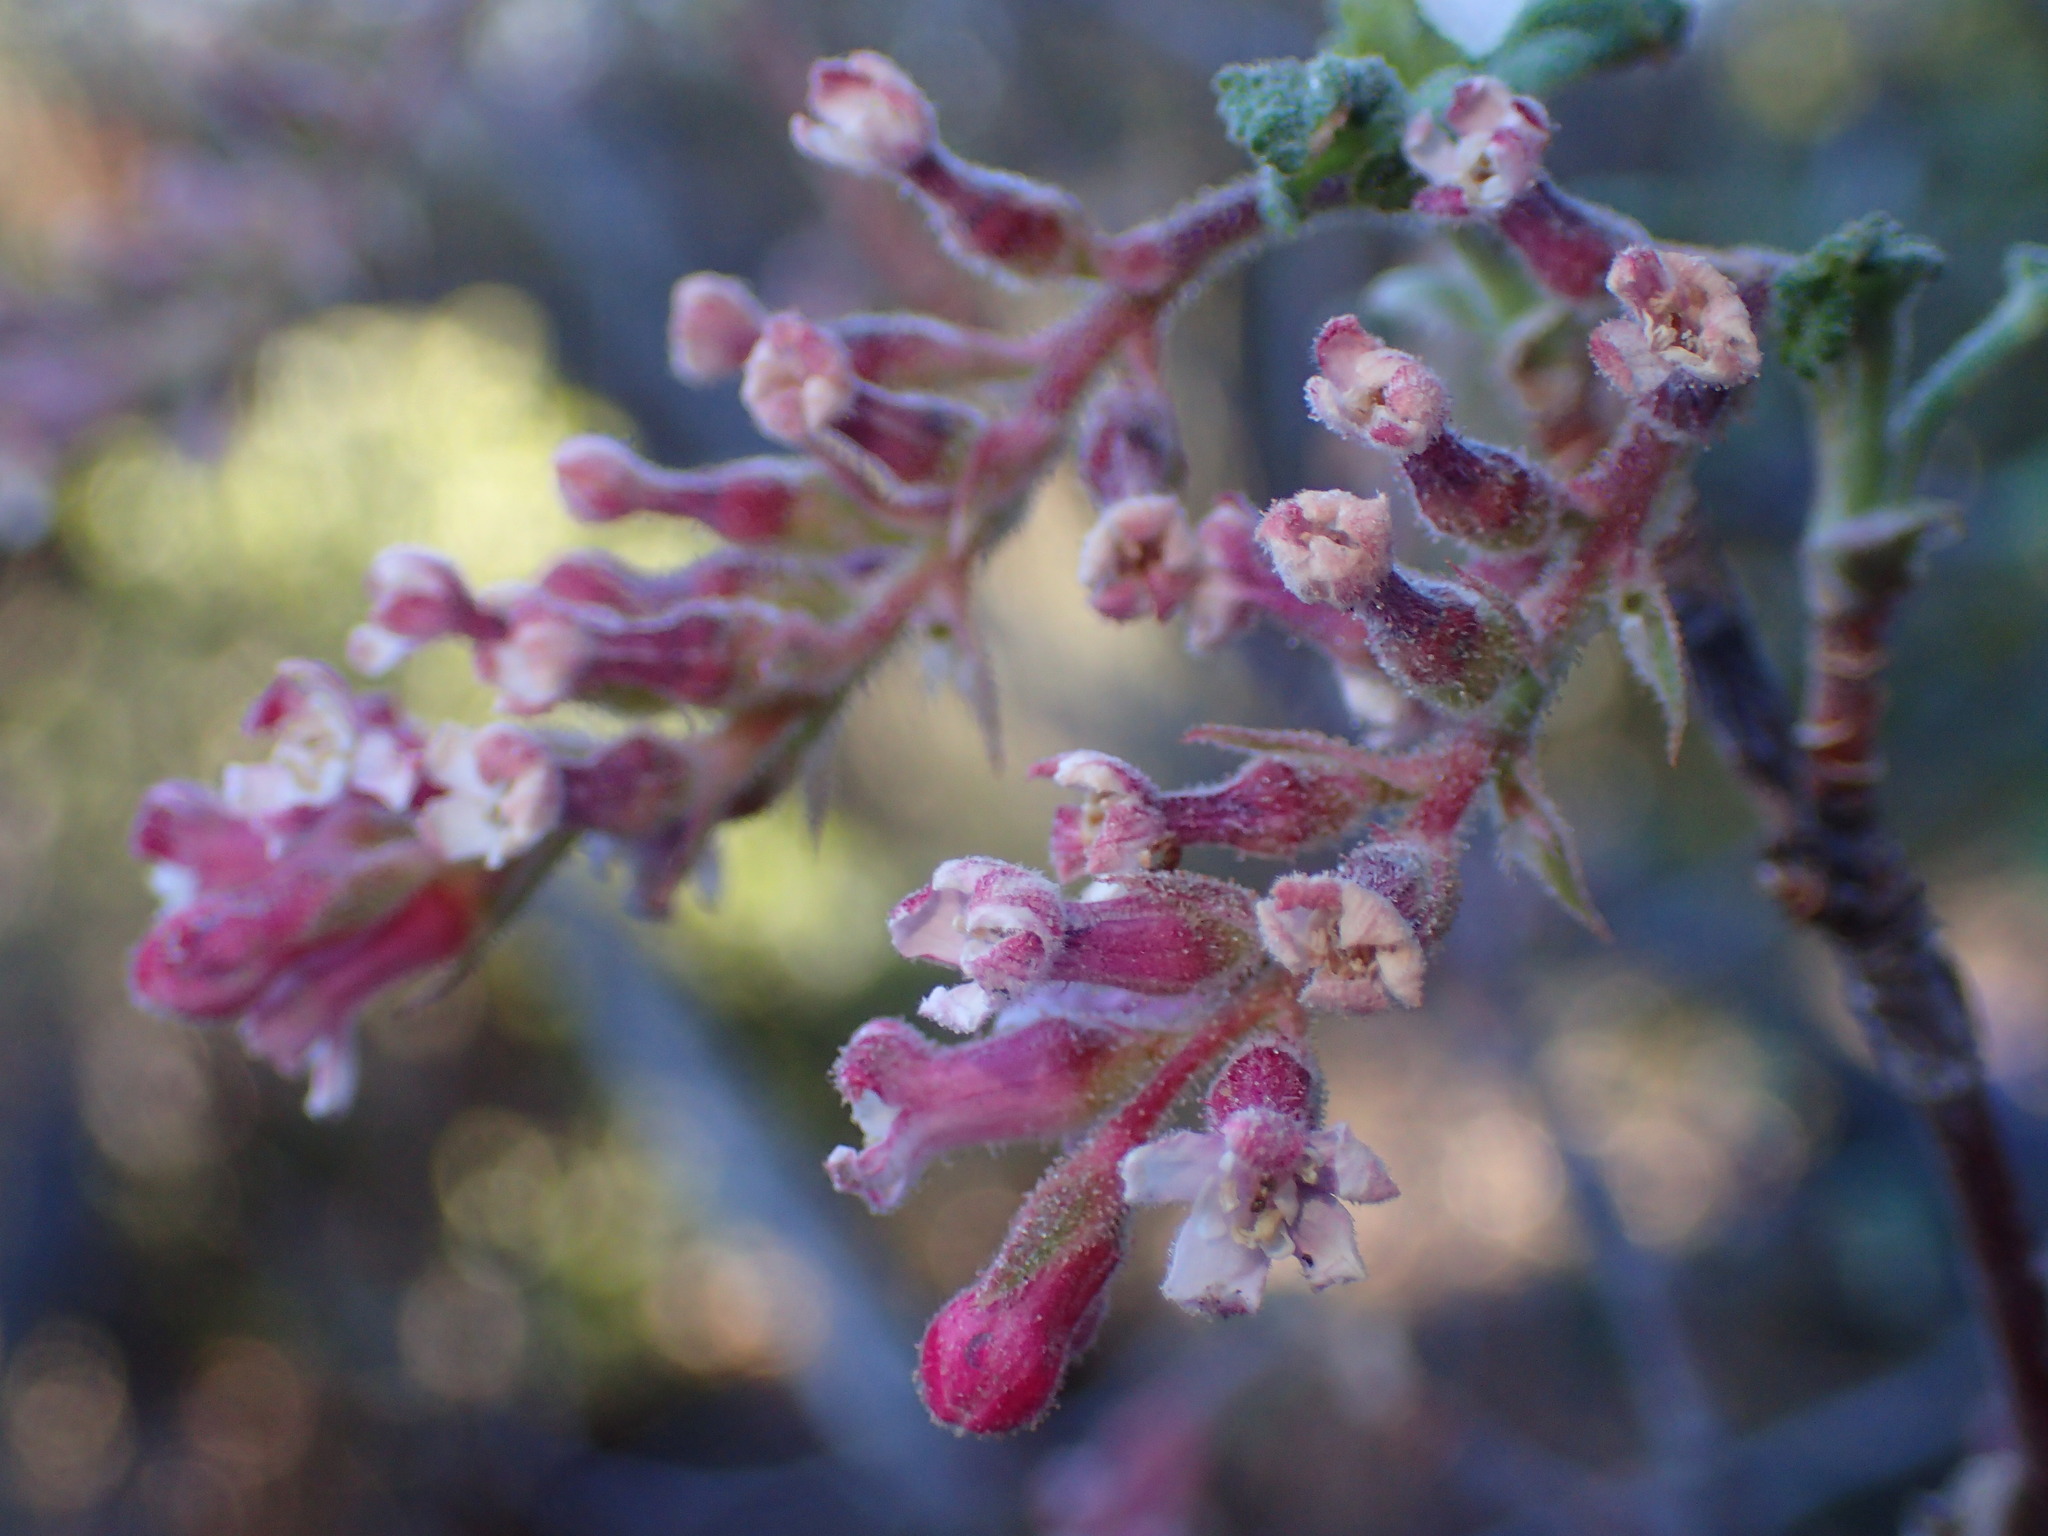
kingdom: Plantae
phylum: Tracheophyta
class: Magnoliopsida
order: Saxifragales
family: Grossulariaceae
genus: Ribes
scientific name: Ribes malvaceum
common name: Chaparral currant
